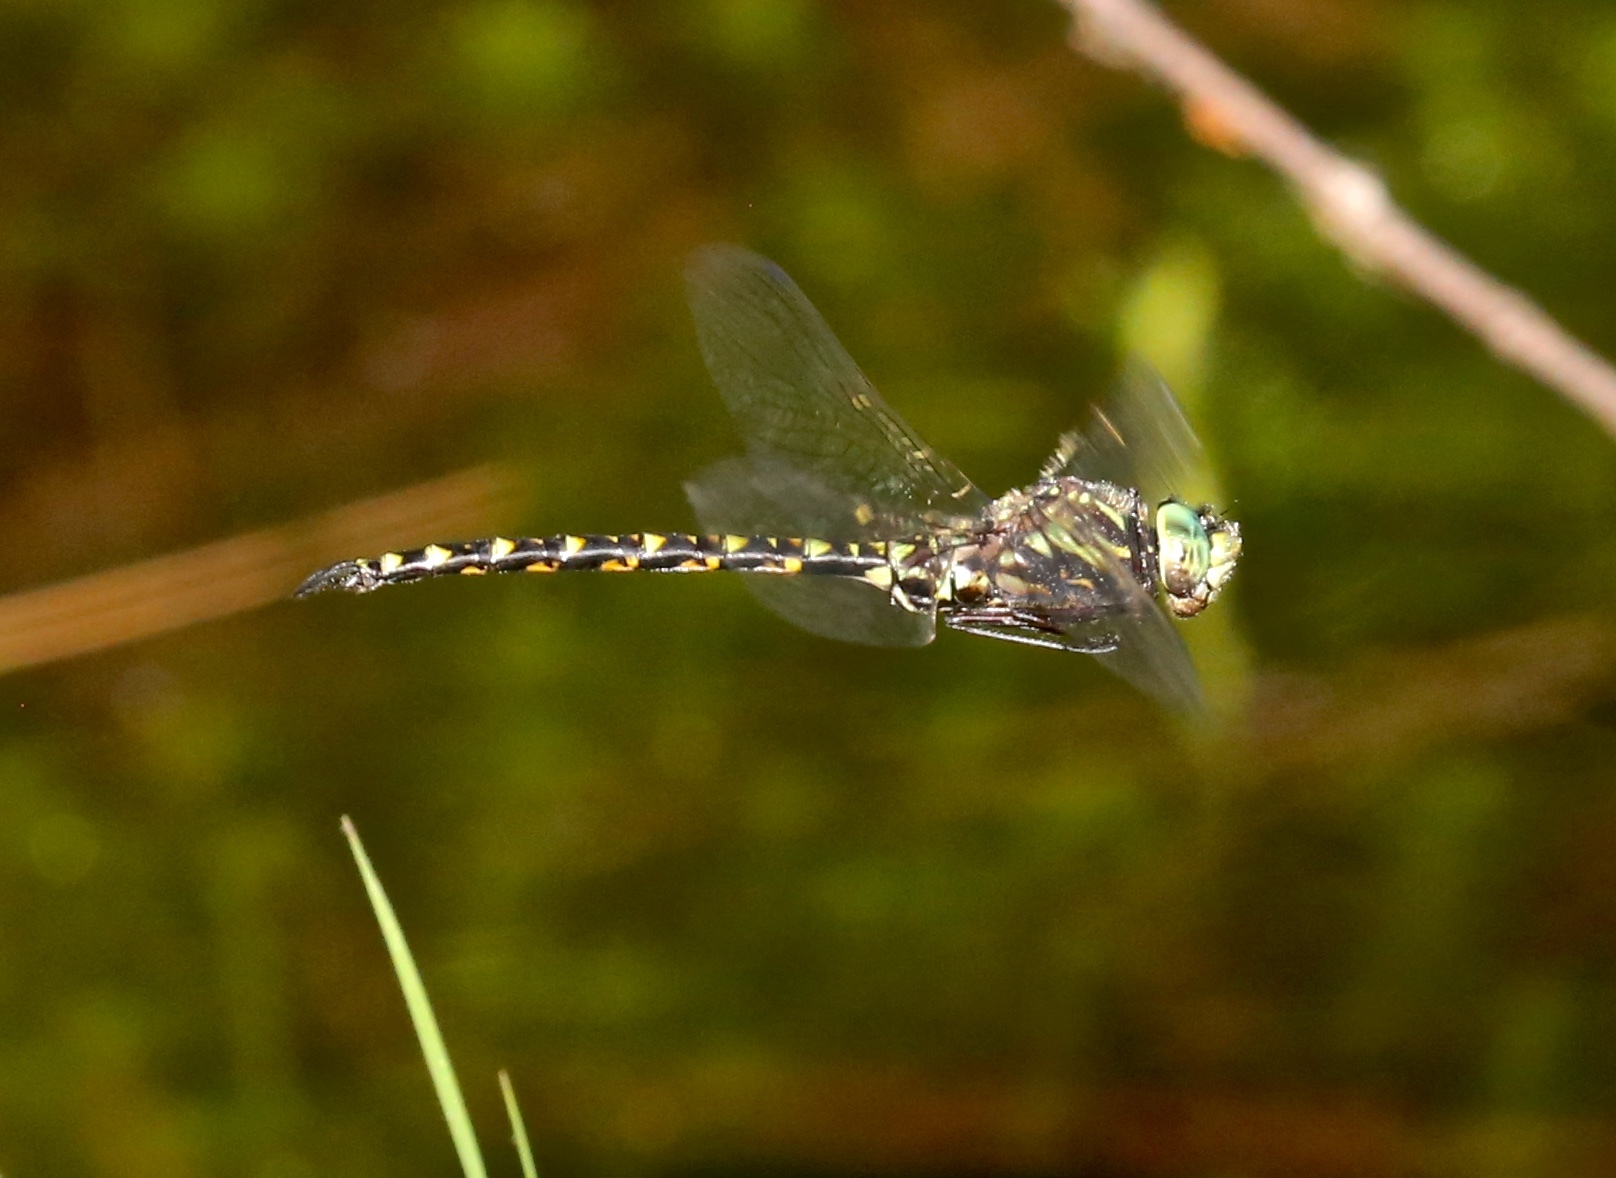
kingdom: Animalia
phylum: Arthropoda
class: Insecta
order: Odonata
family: Aeshnidae
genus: Gomphaeschna
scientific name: Gomphaeschna furcillata
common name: Harlequin darner
